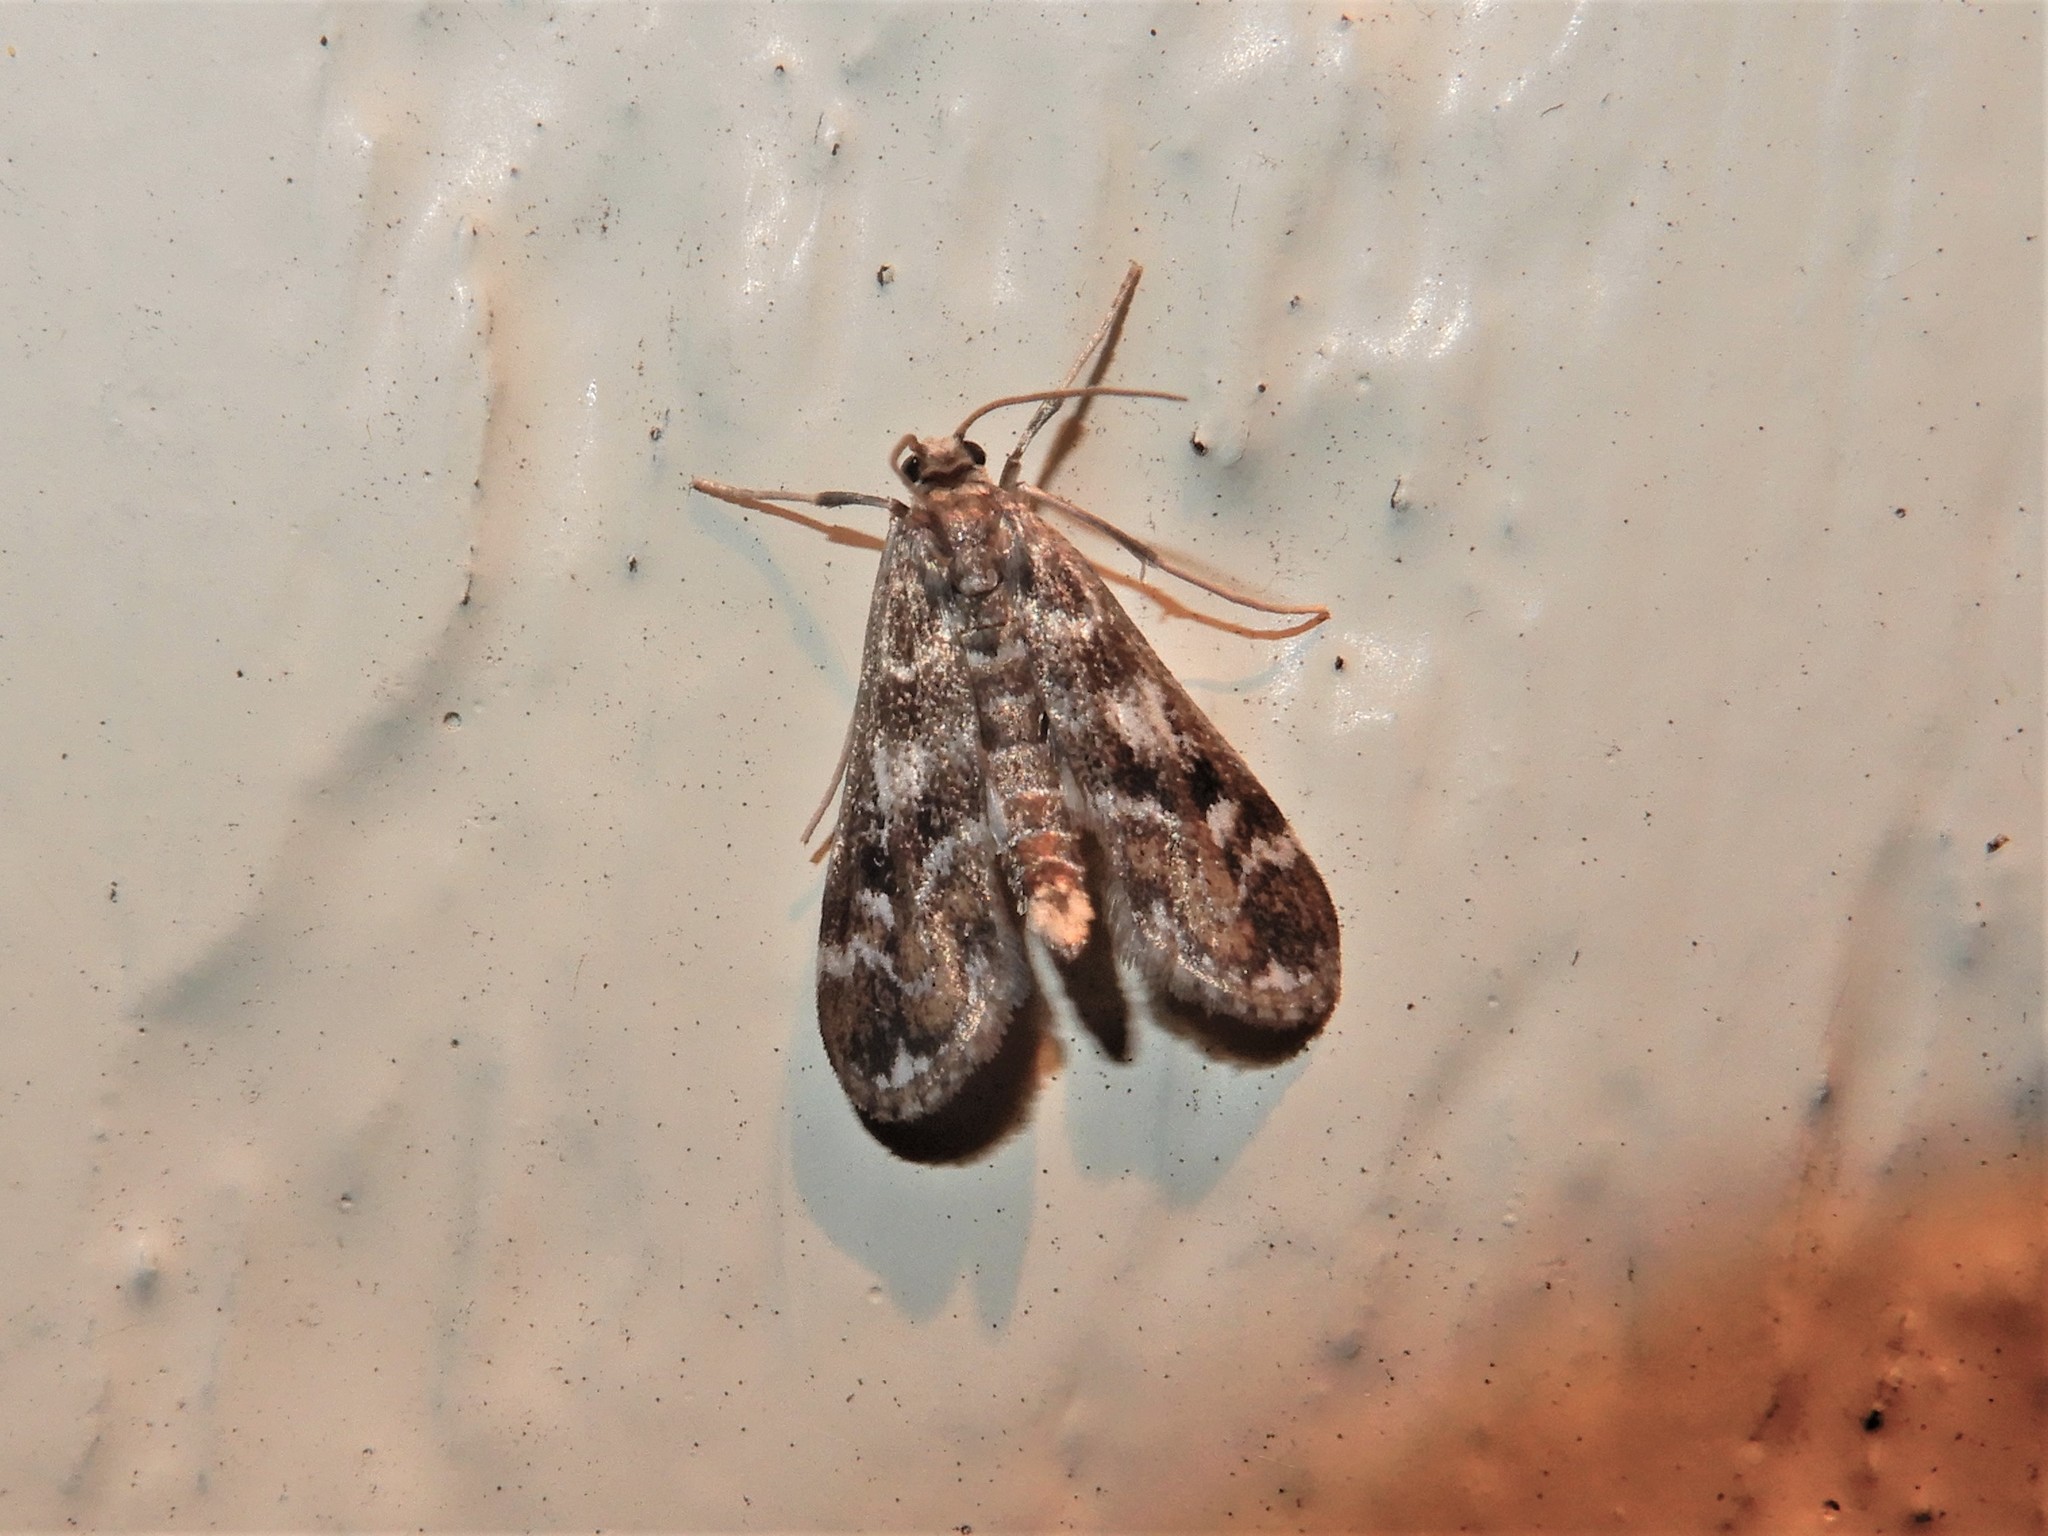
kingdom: Animalia
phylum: Arthropoda
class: Insecta
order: Lepidoptera
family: Crambidae
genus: Hygraula
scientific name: Hygraula nitens
